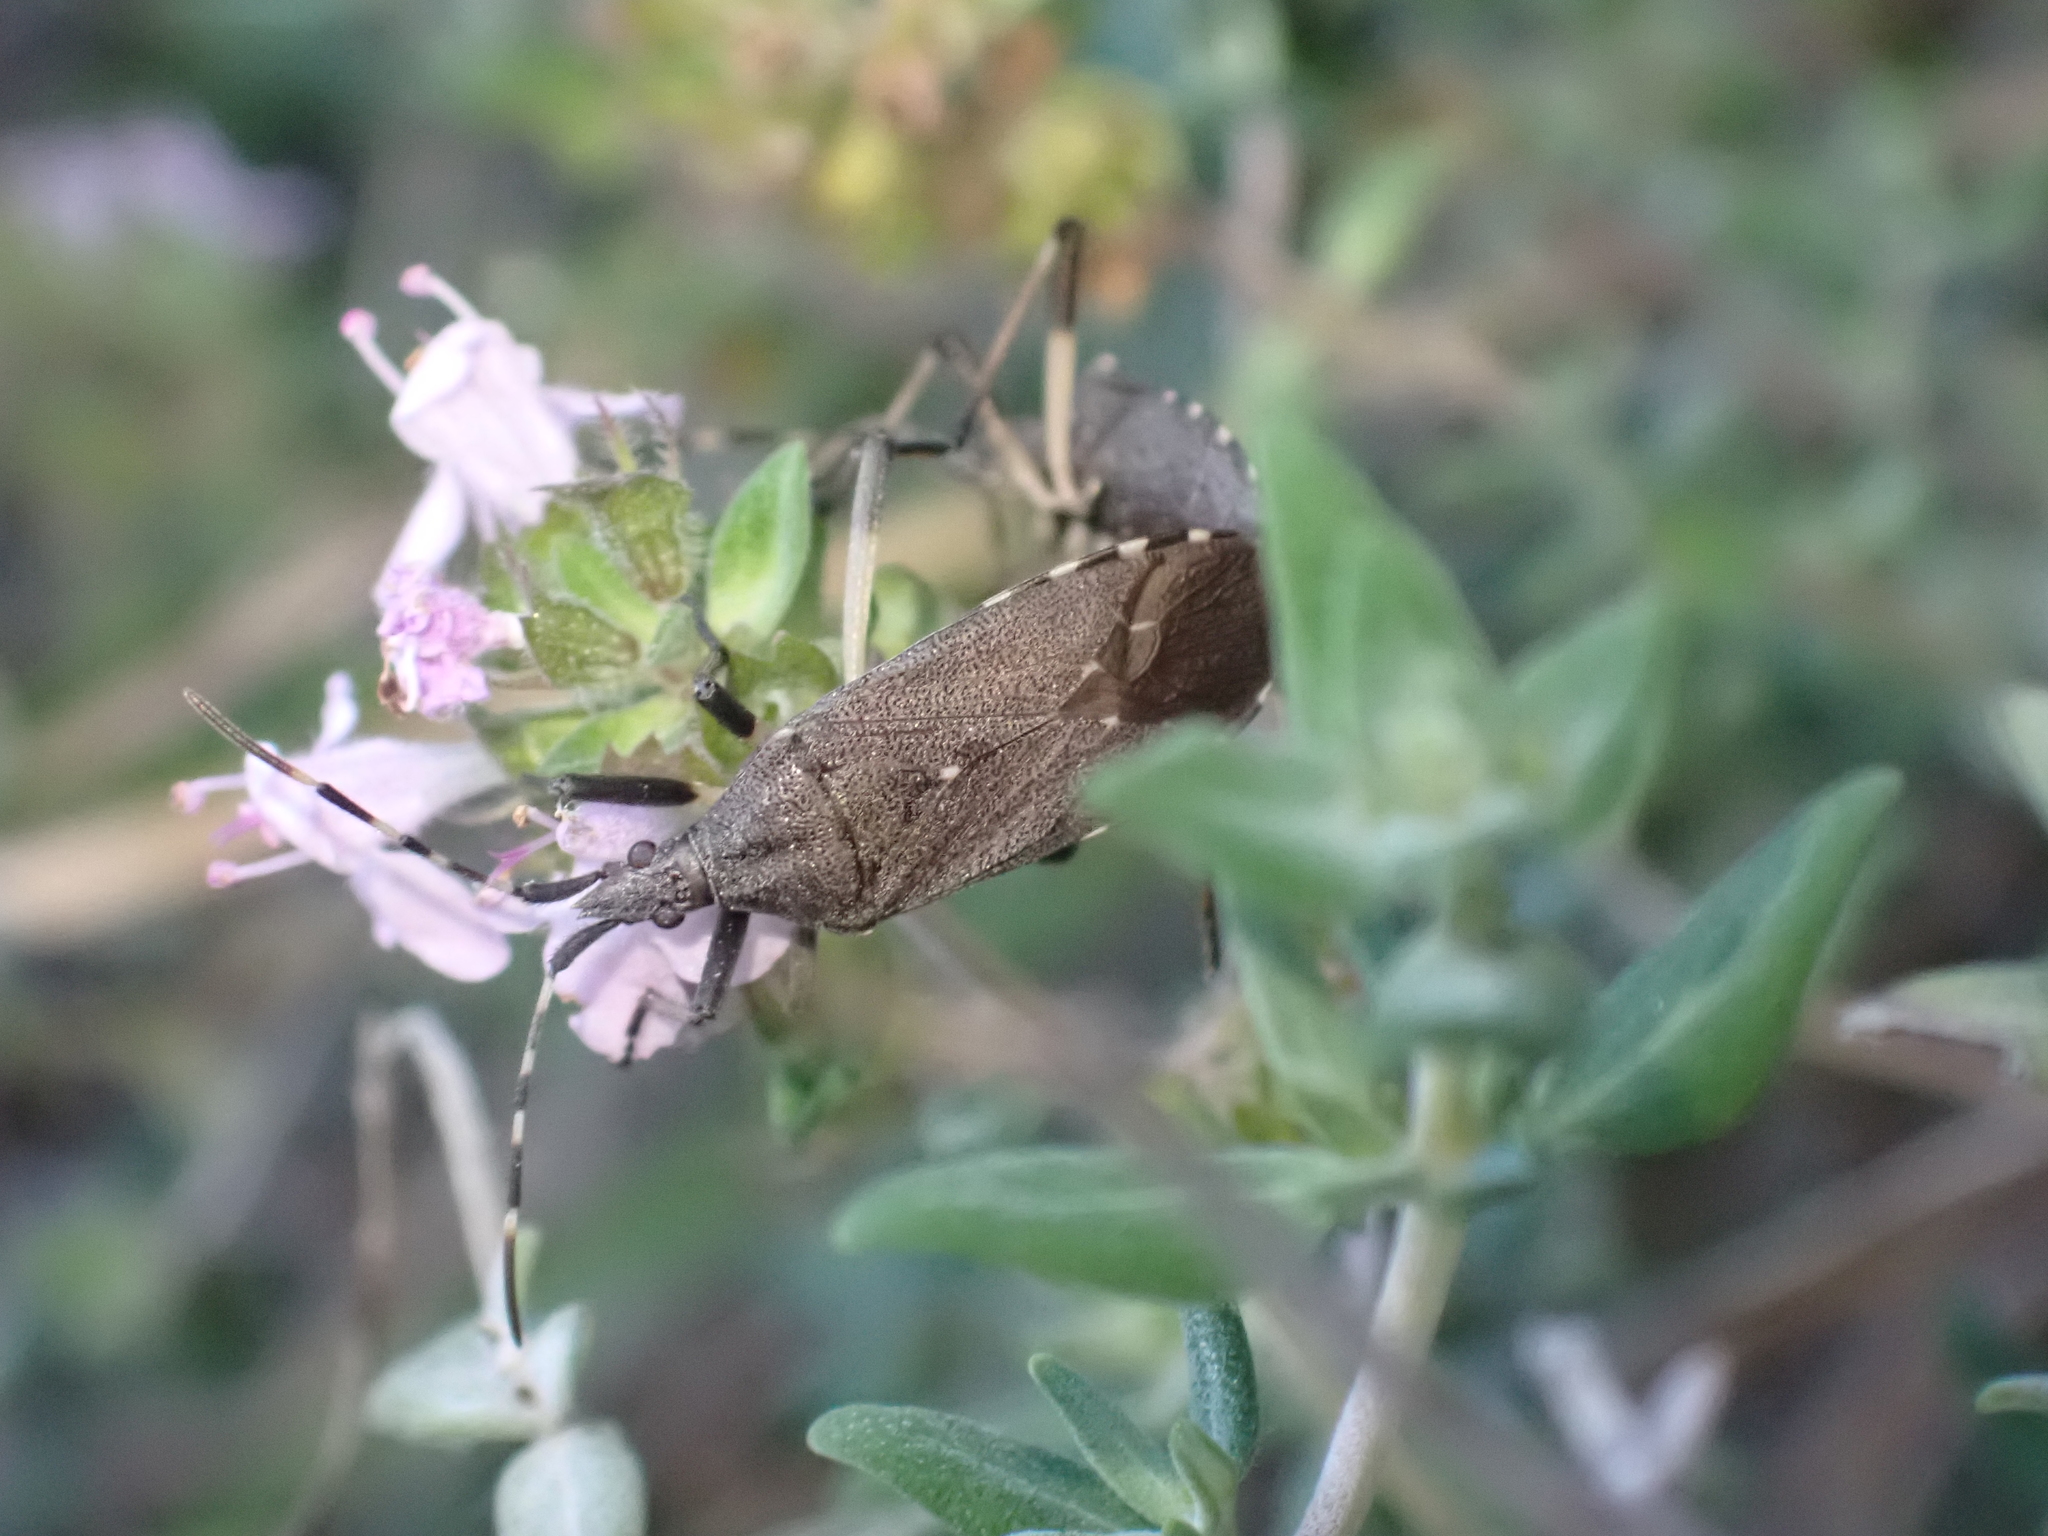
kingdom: Animalia
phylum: Arthropoda
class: Insecta
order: Hemiptera
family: Stenocephalidae
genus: Dicranocephalus
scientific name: Dicranocephalus agilis
